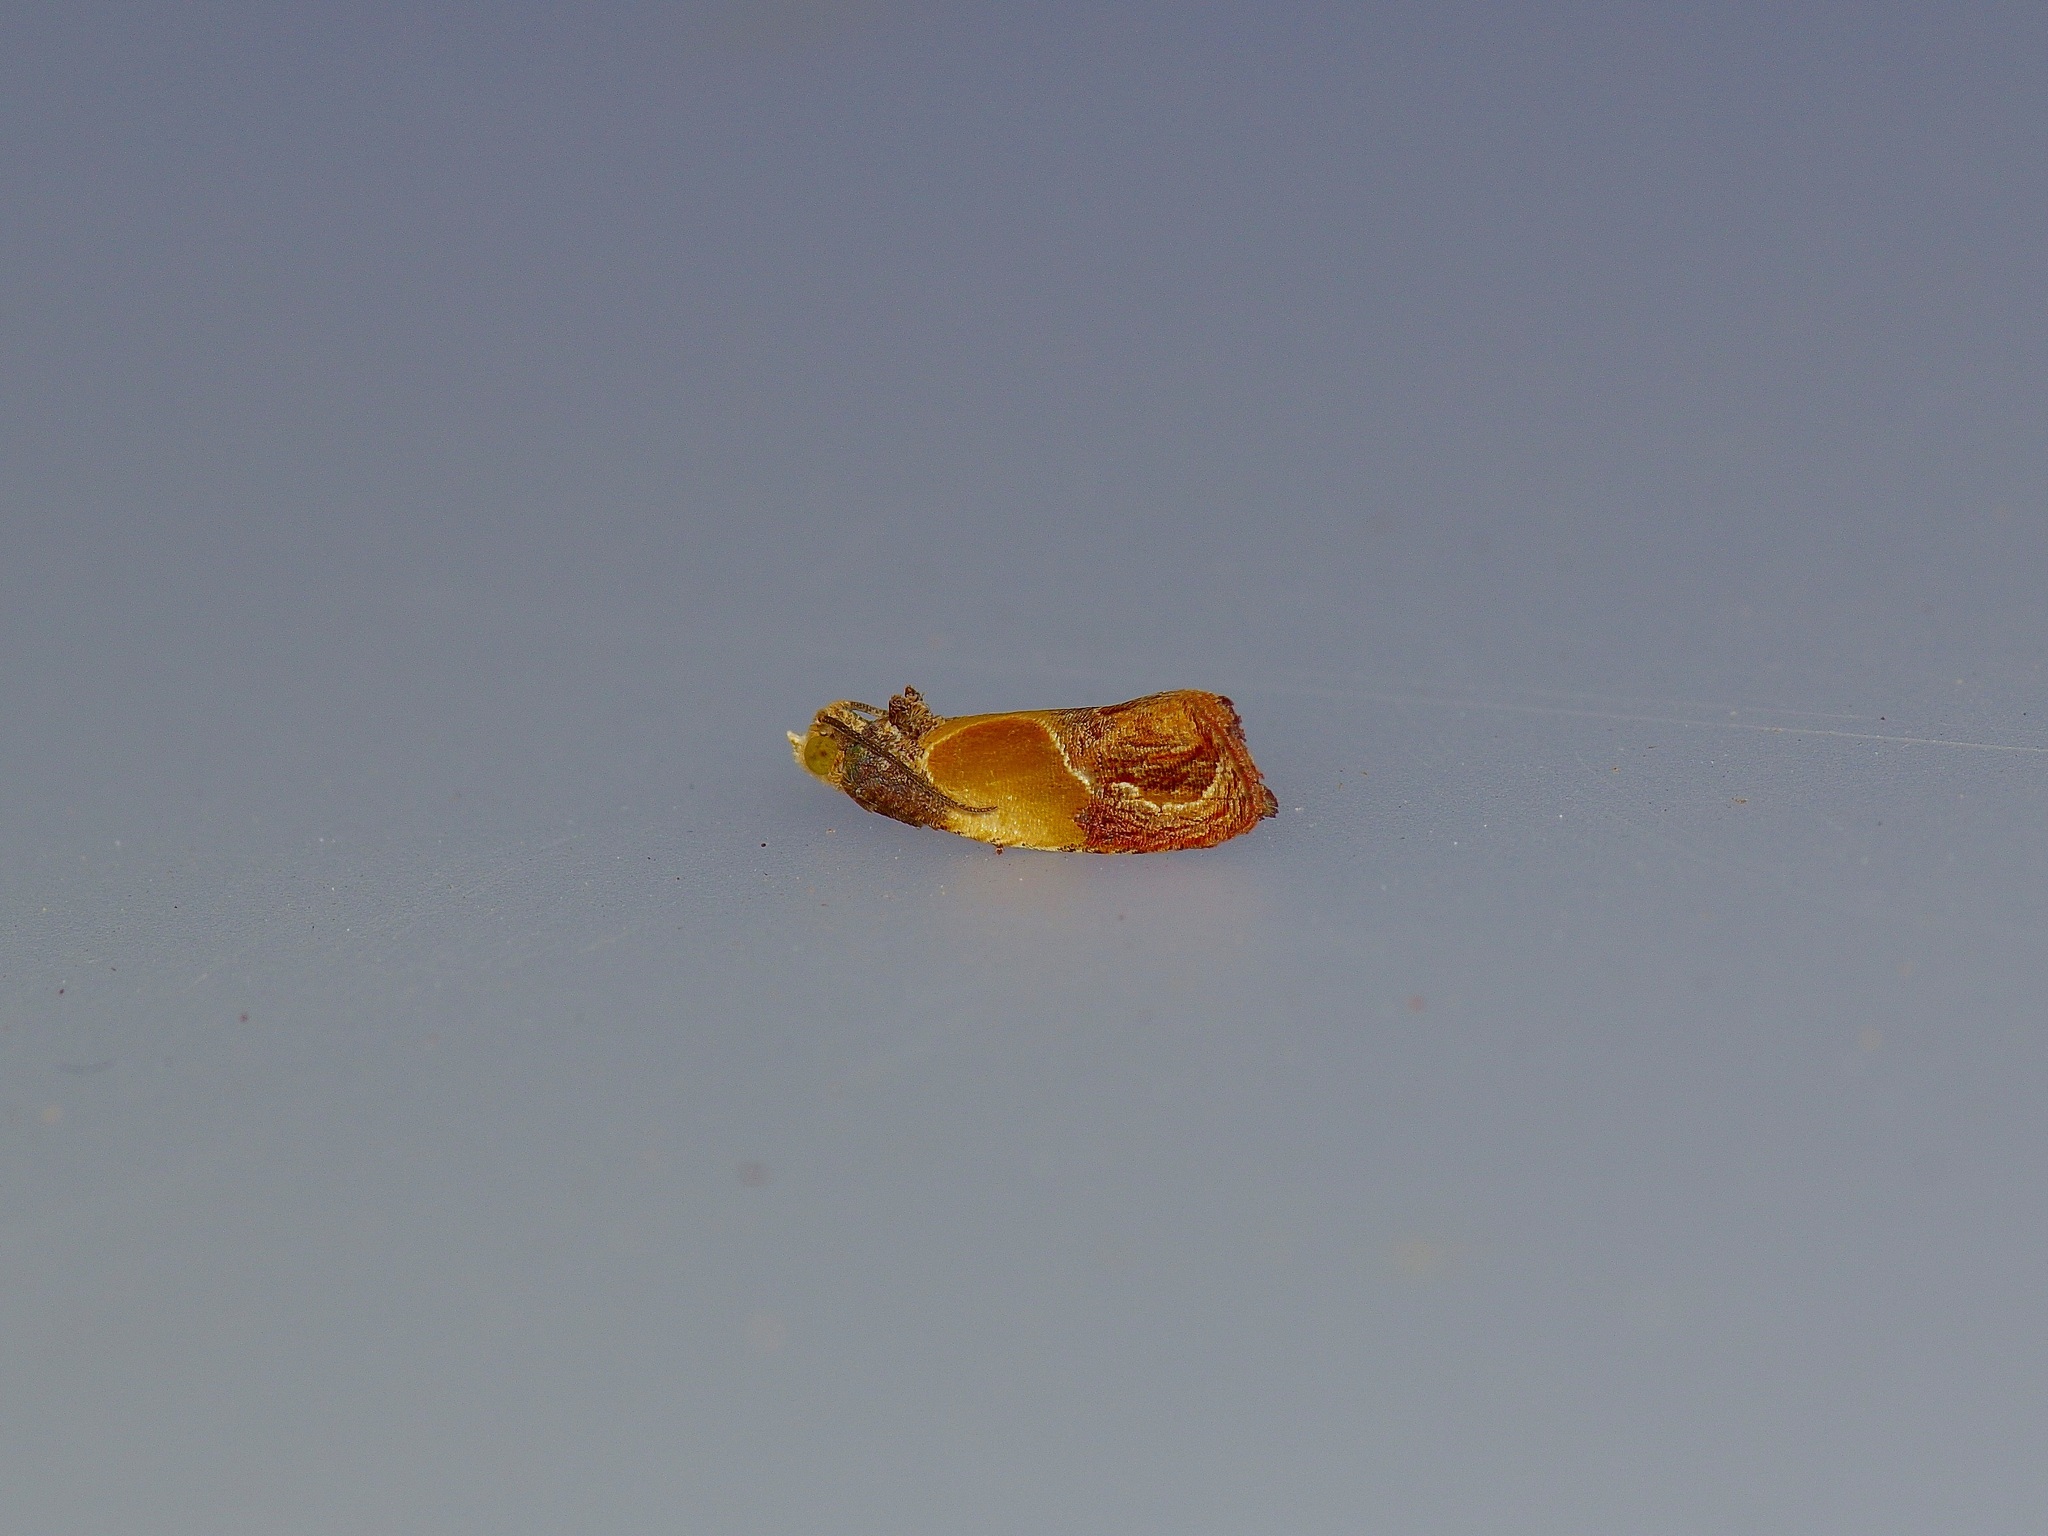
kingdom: Animalia
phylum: Arthropoda
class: Insecta
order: Lepidoptera
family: Tortricidae
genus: Eumarozia
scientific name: Eumarozia malachitana
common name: Sculptured moth
